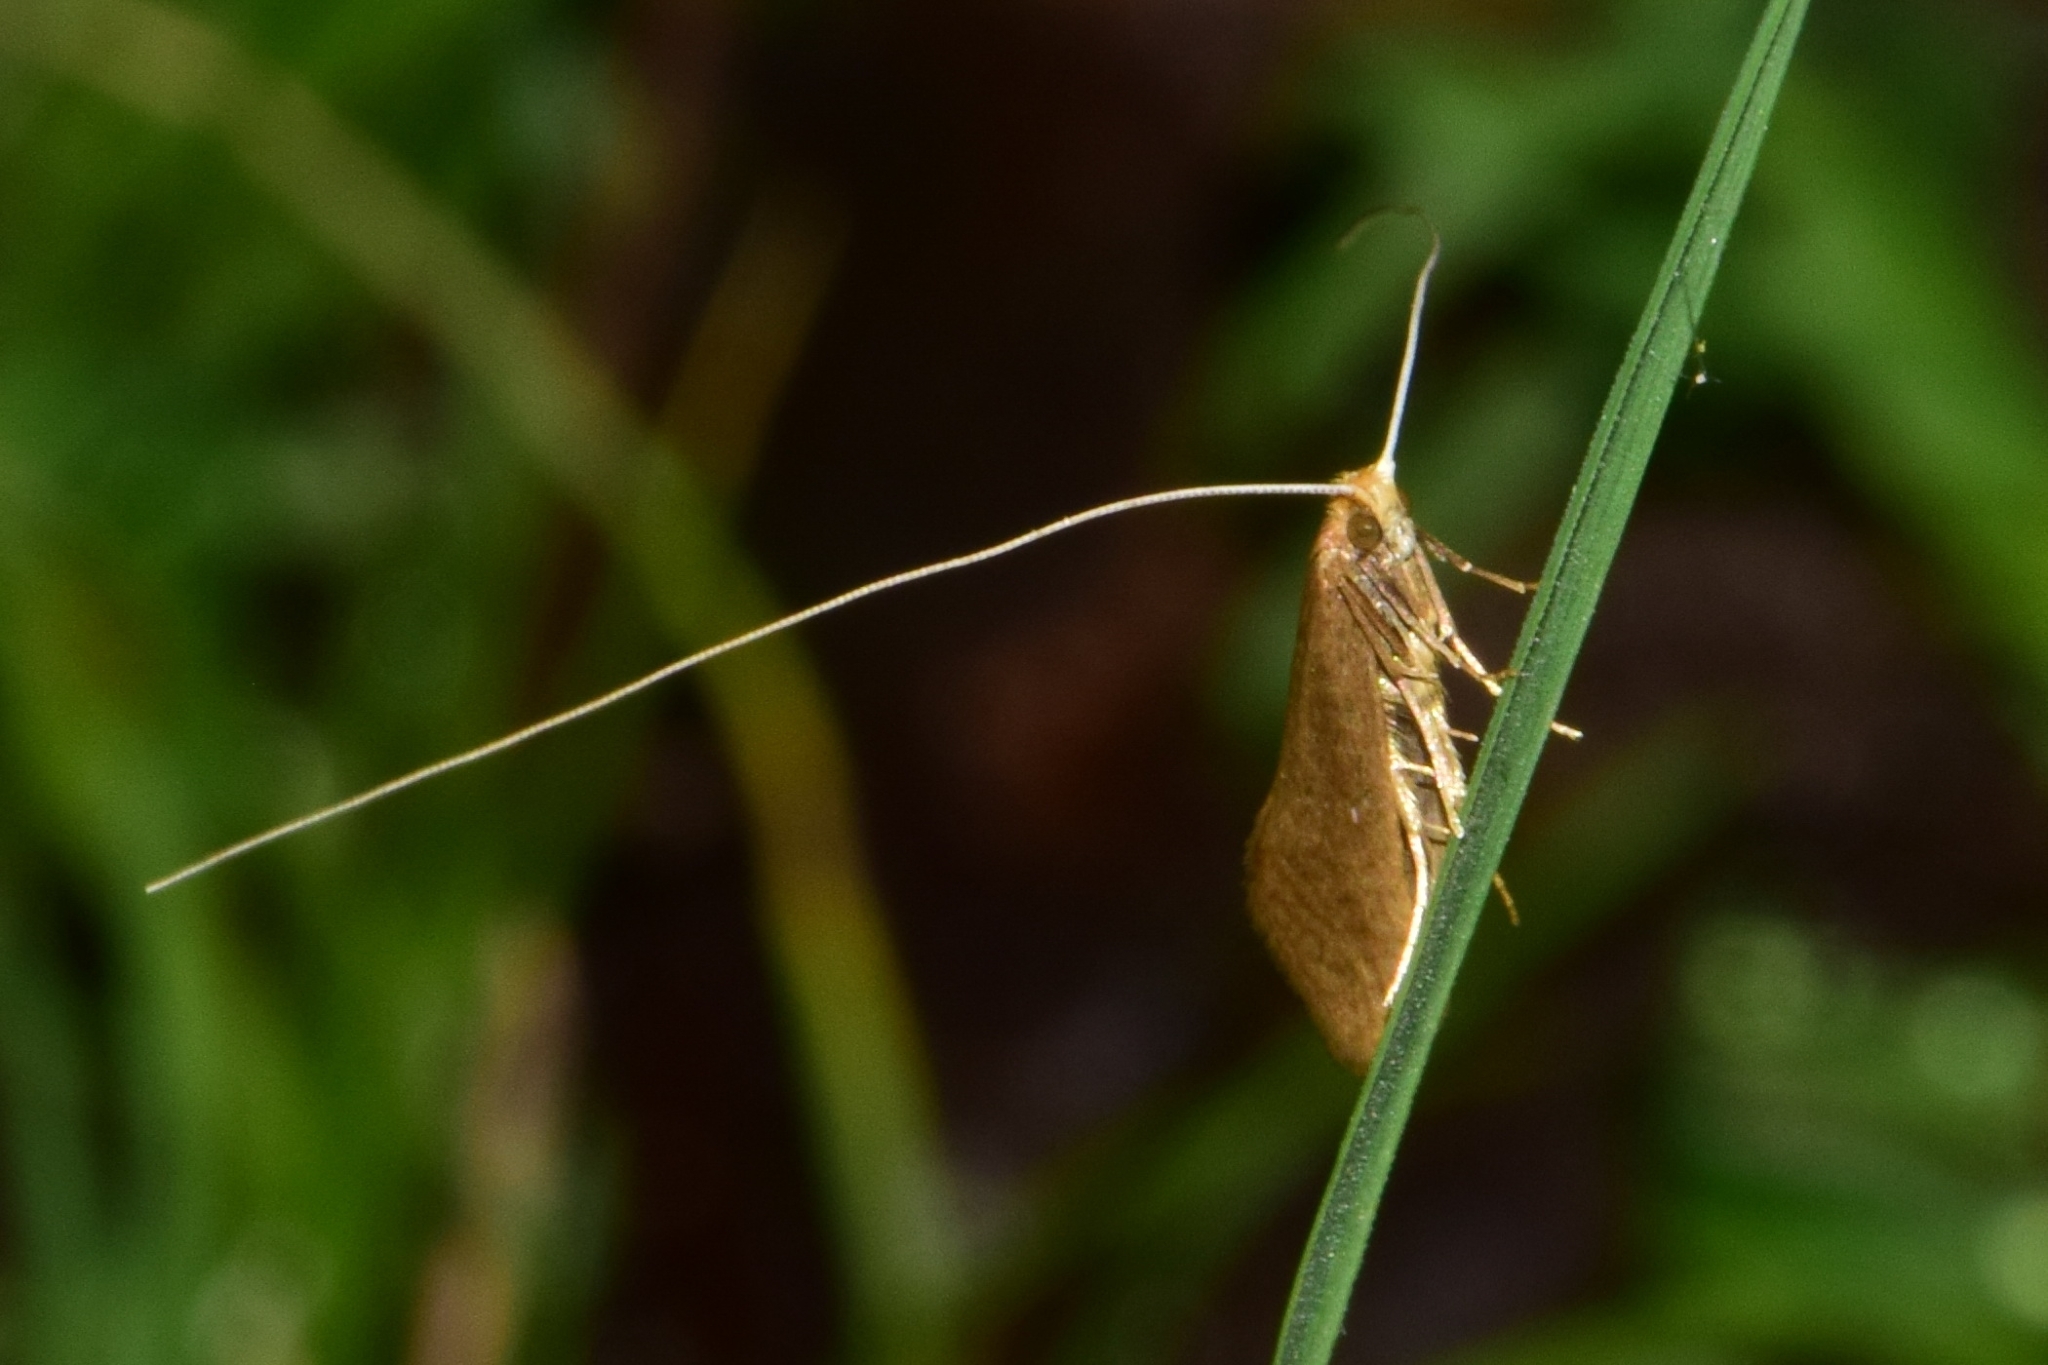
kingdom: Animalia
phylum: Arthropoda
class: Insecta
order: Lepidoptera
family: Adelidae
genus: Nematopogon
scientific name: Nematopogon swammerdamella
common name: Large long-horn
